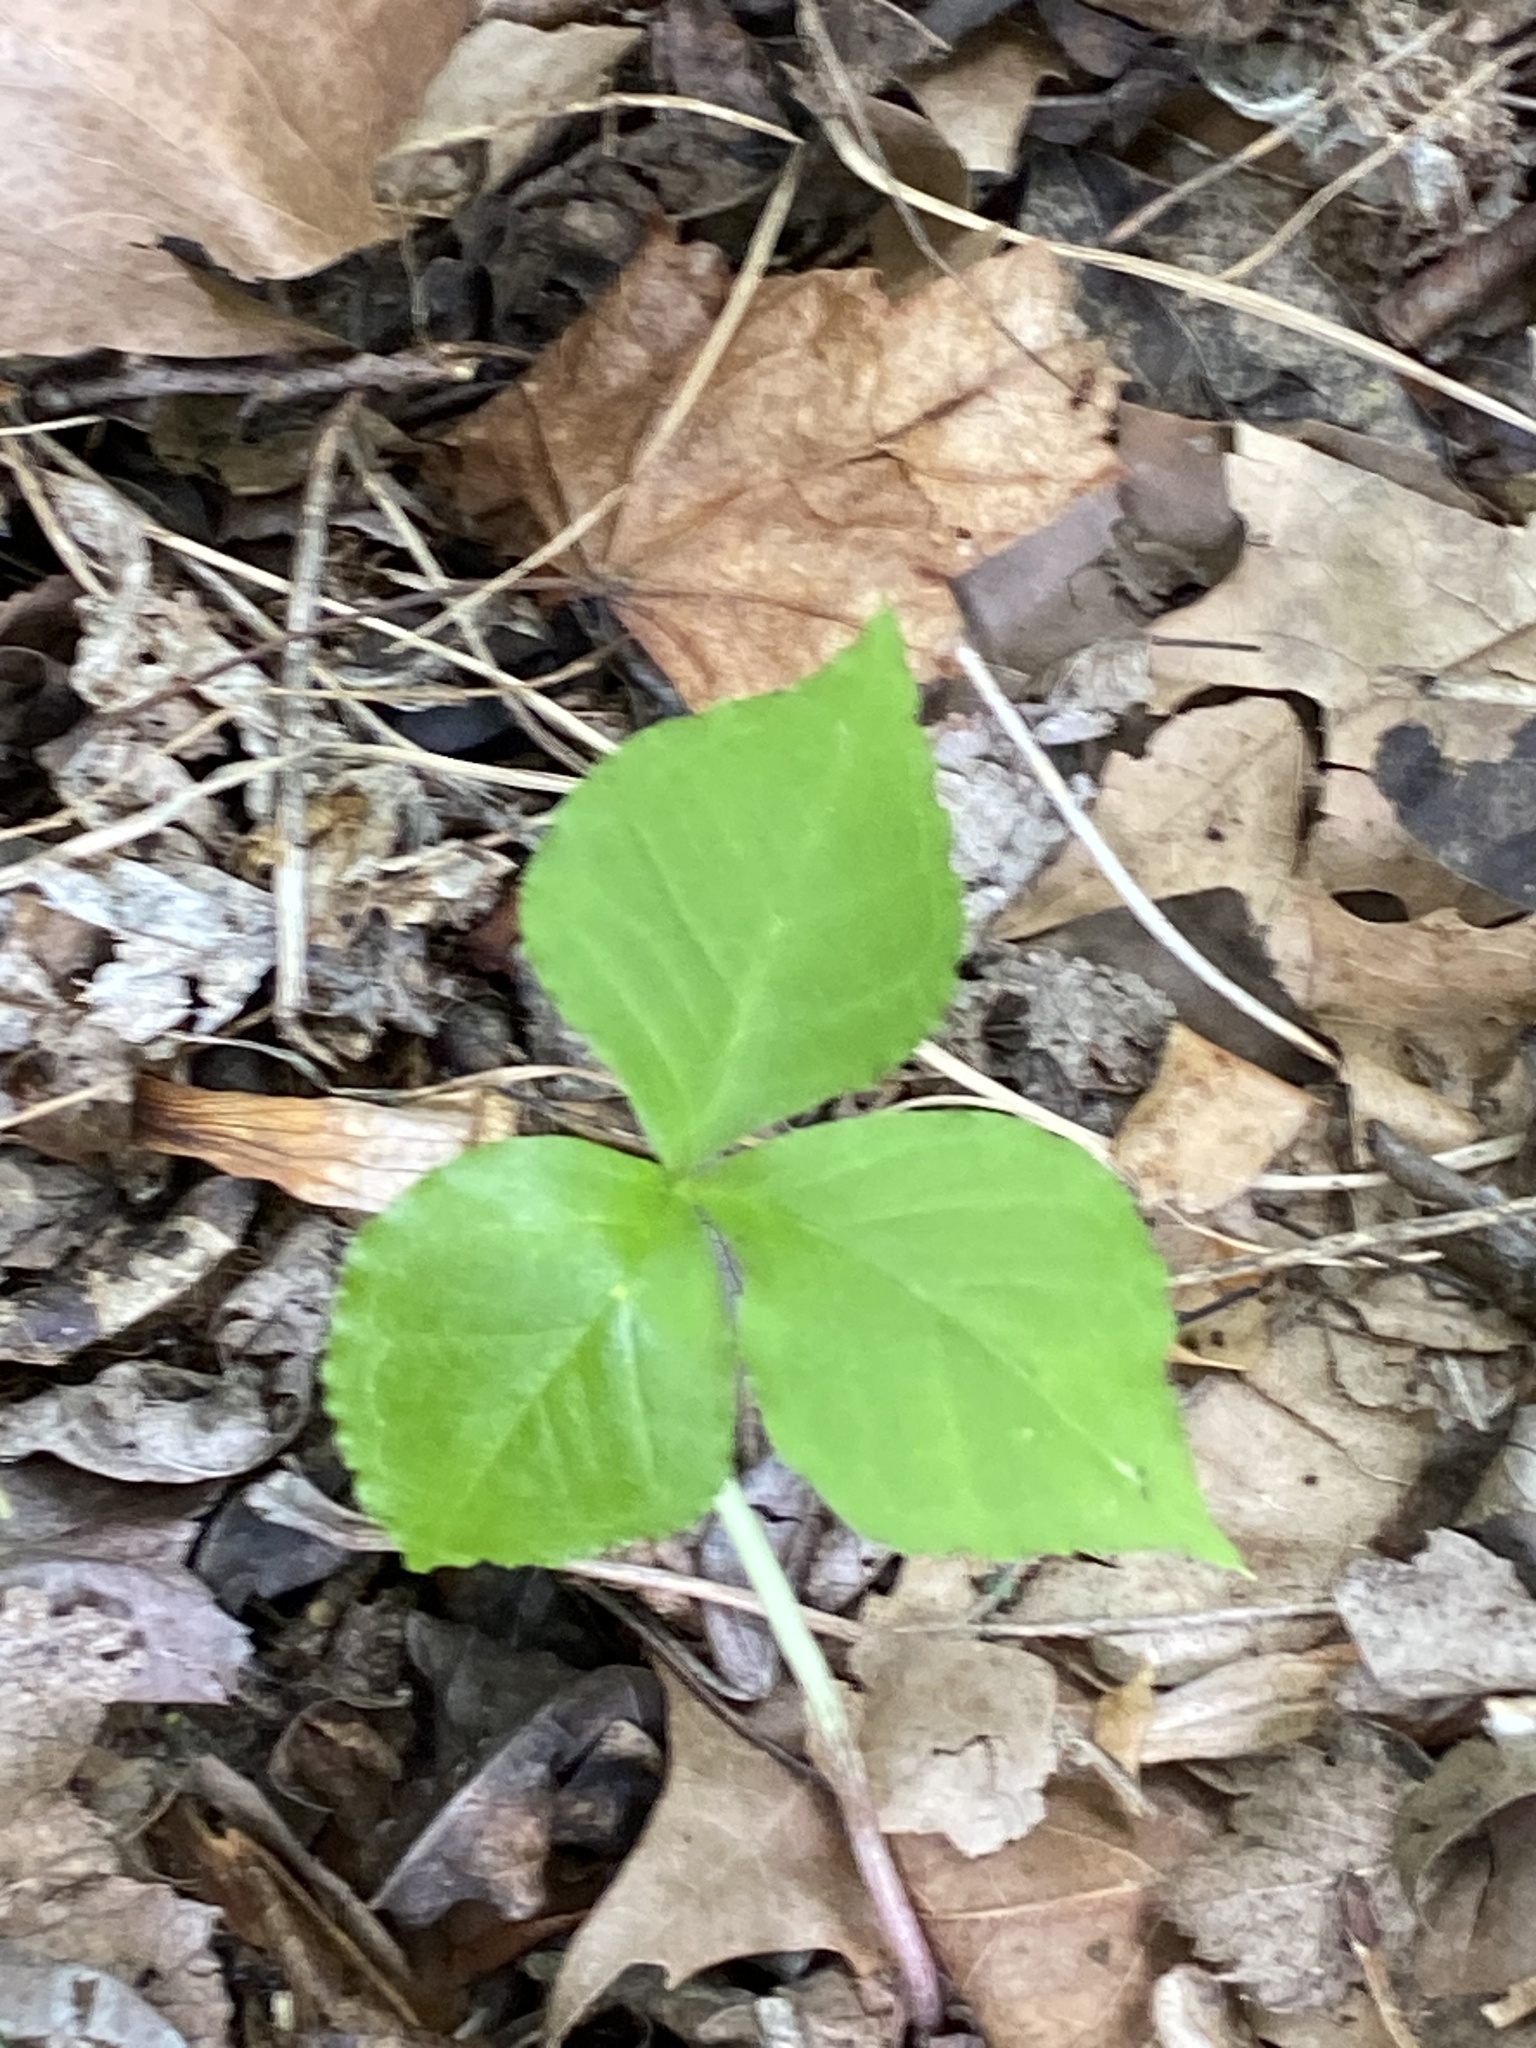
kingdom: Plantae
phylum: Tracheophyta
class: Liliopsida
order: Alismatales
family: Araceae
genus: Arisaema
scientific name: Arisaema triphyllum
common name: Jack-in-the-pulpit
